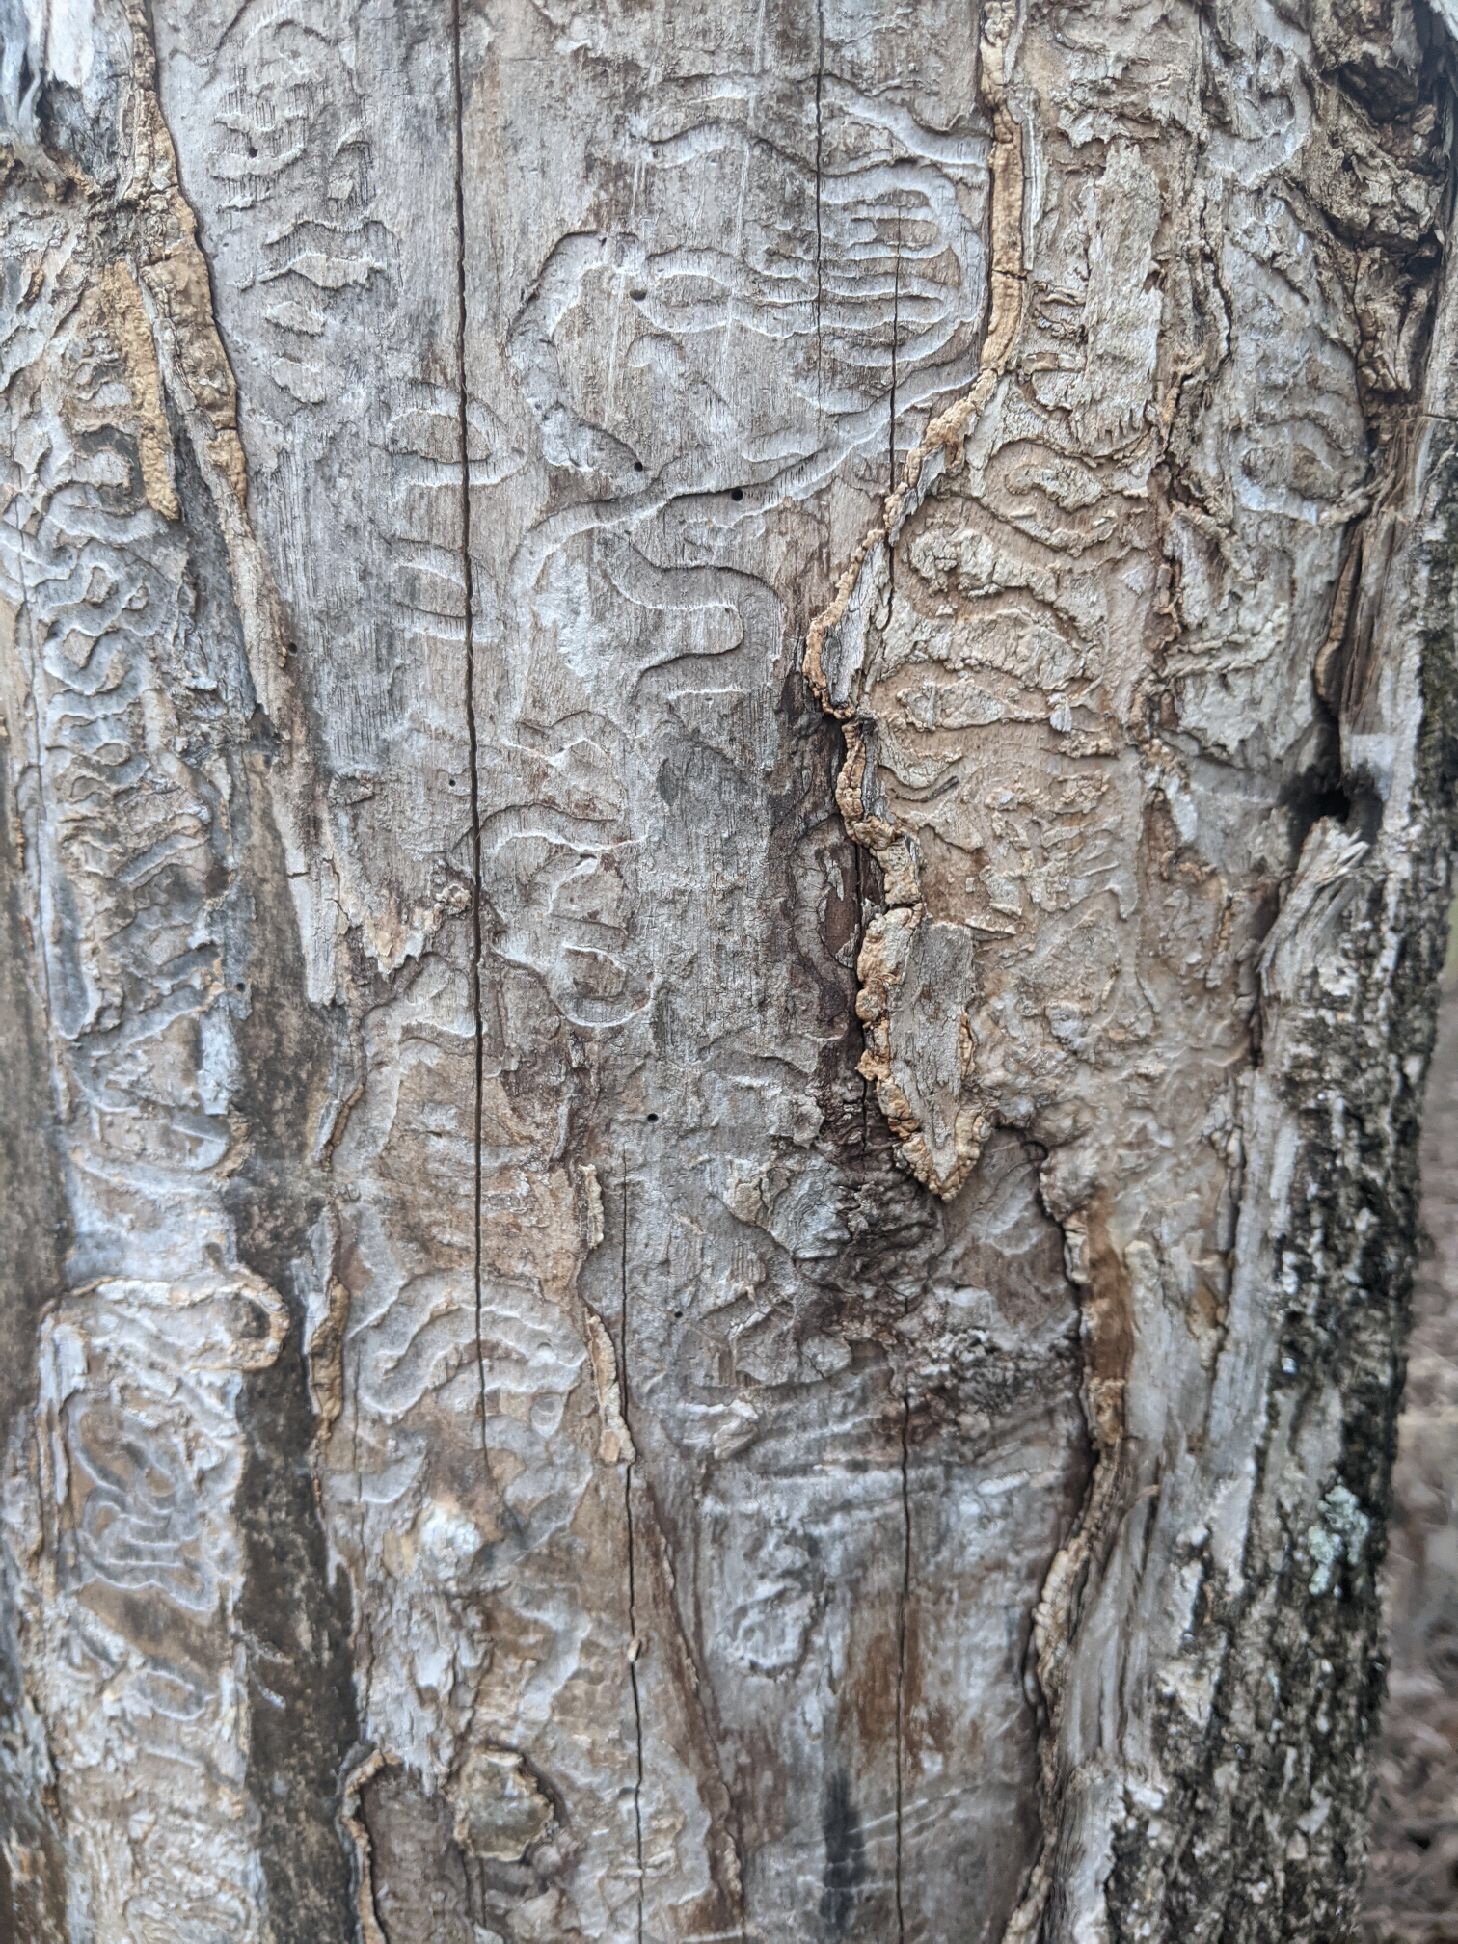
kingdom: Animalia
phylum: Arthropoda
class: Insecta
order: Coleoptera
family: Buprestidae
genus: Agrilus
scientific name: Agrilus planipennis
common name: Emerald ash borer
